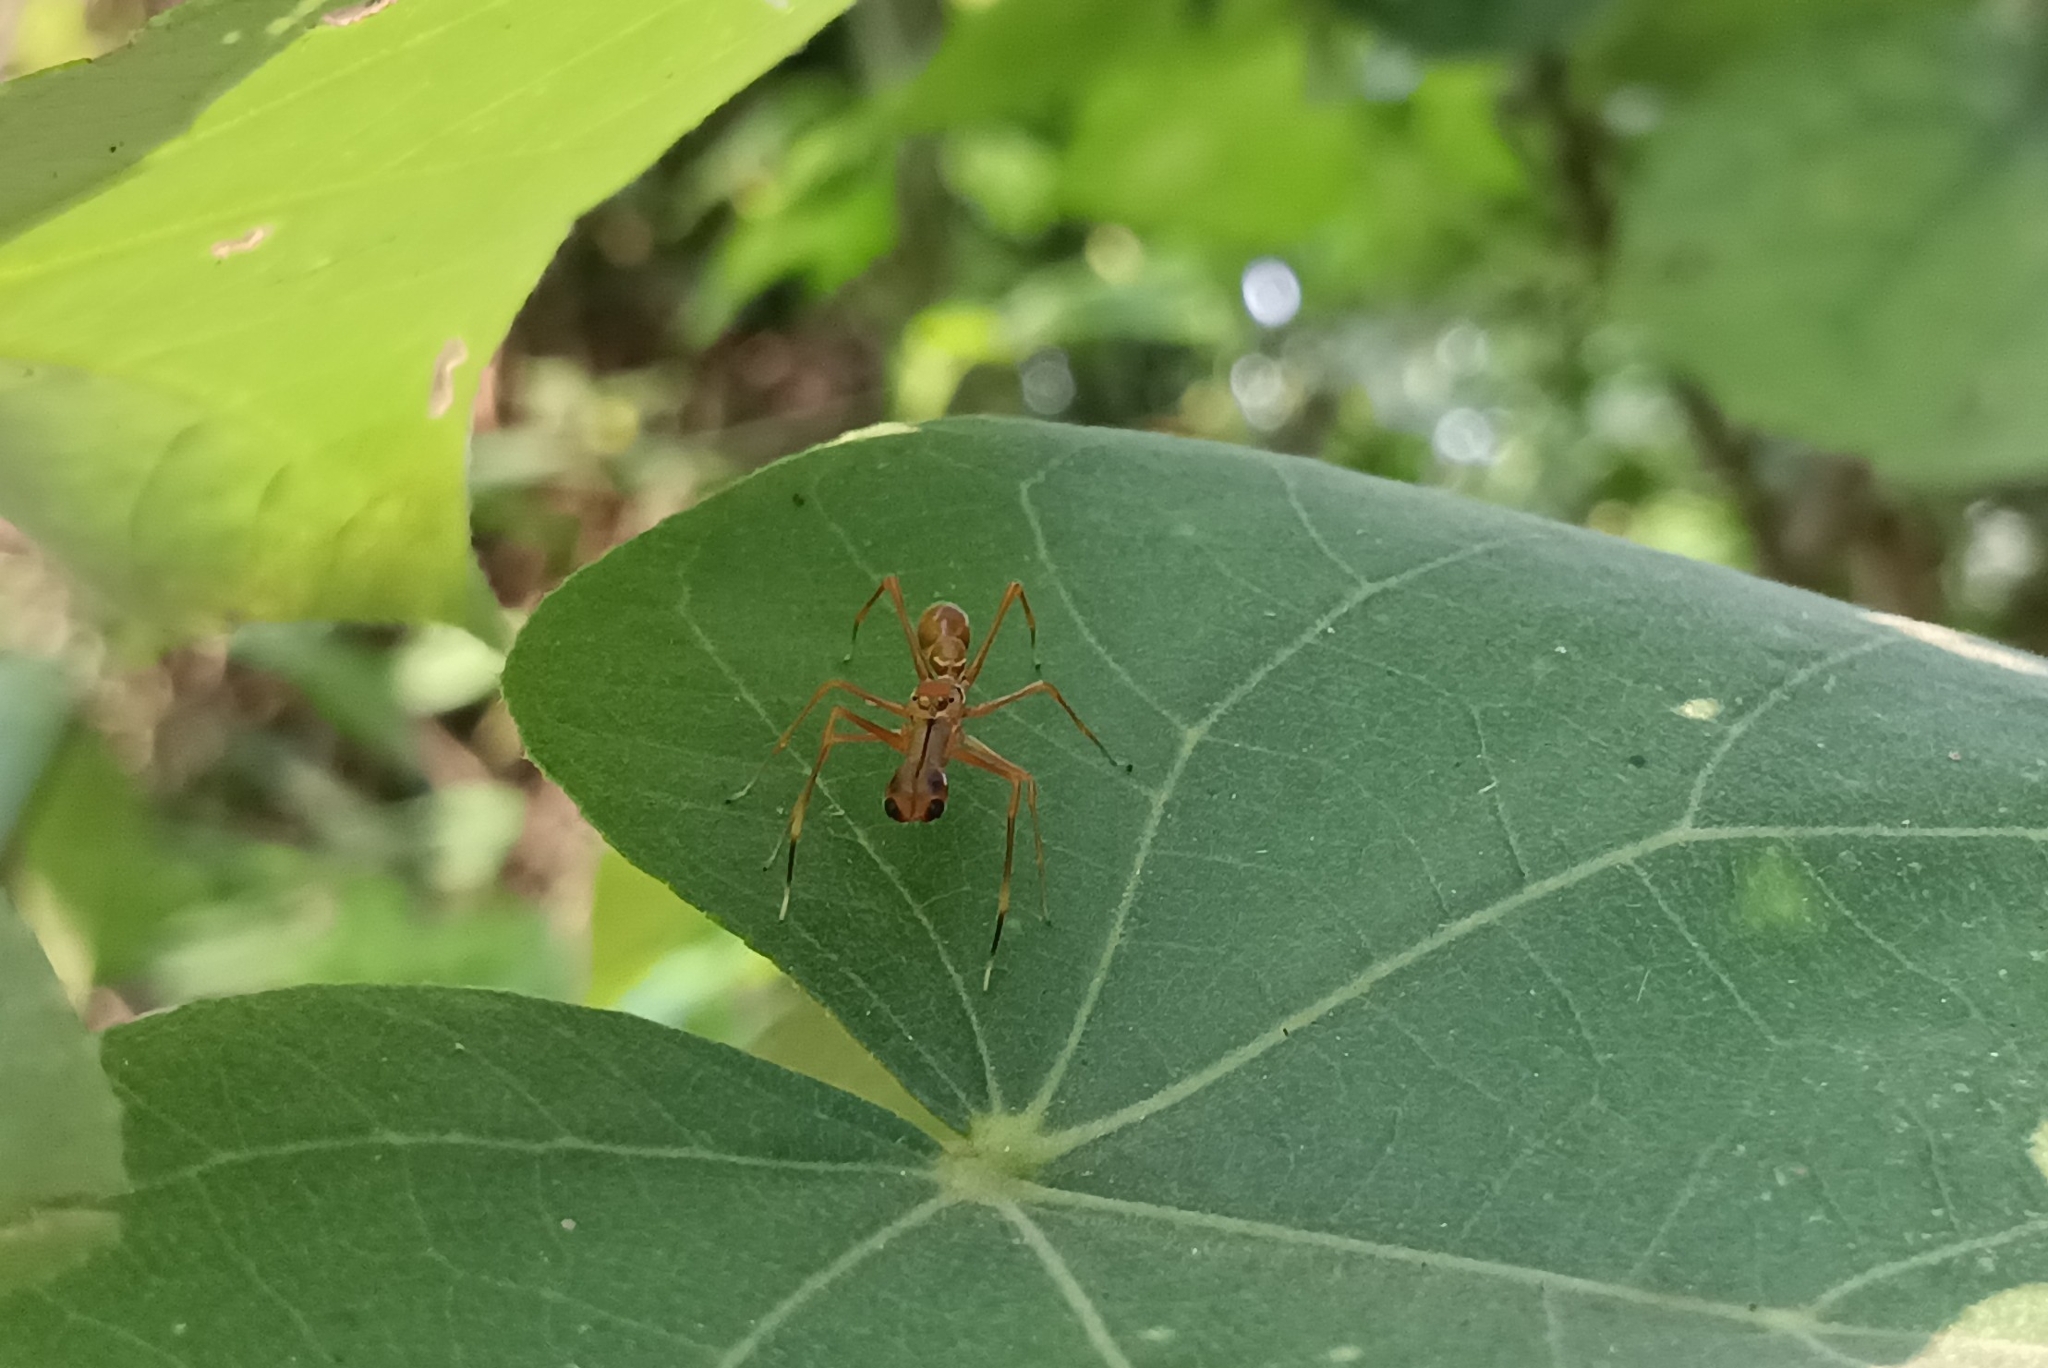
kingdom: Animalia
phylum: Arthropoda
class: Arachnida
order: Araneae
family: Salticidae
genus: Myrmaplata
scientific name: Myrmaplata plataleoides
